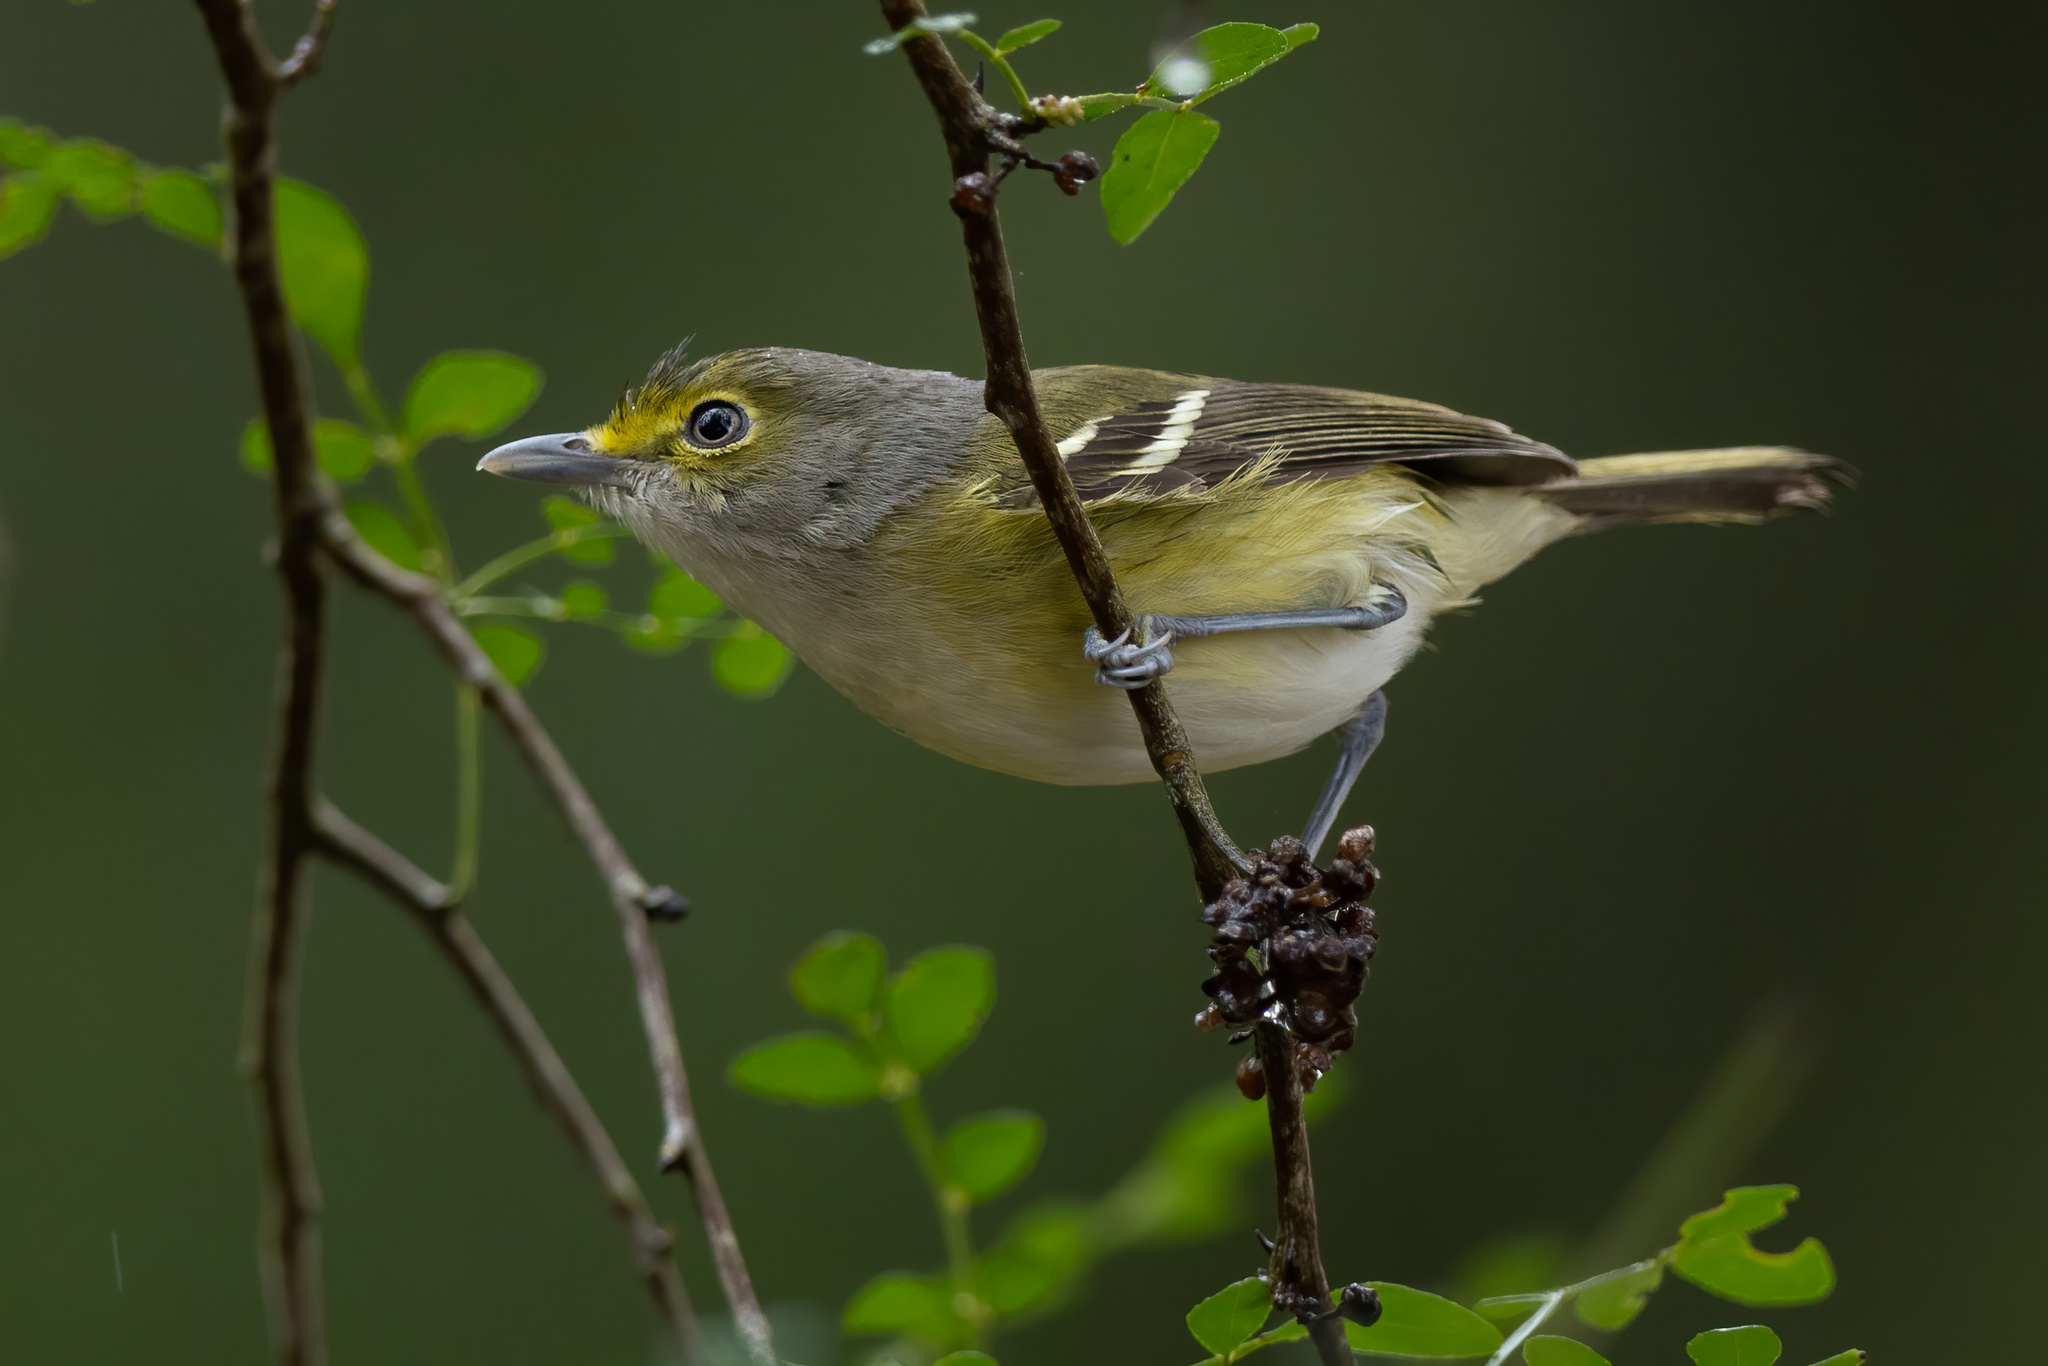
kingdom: Animalia
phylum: Chordata
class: Aves
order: Passeriformes
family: Vireonidae
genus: Vireo
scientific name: Vireo griseus
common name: White-eyed vireo
